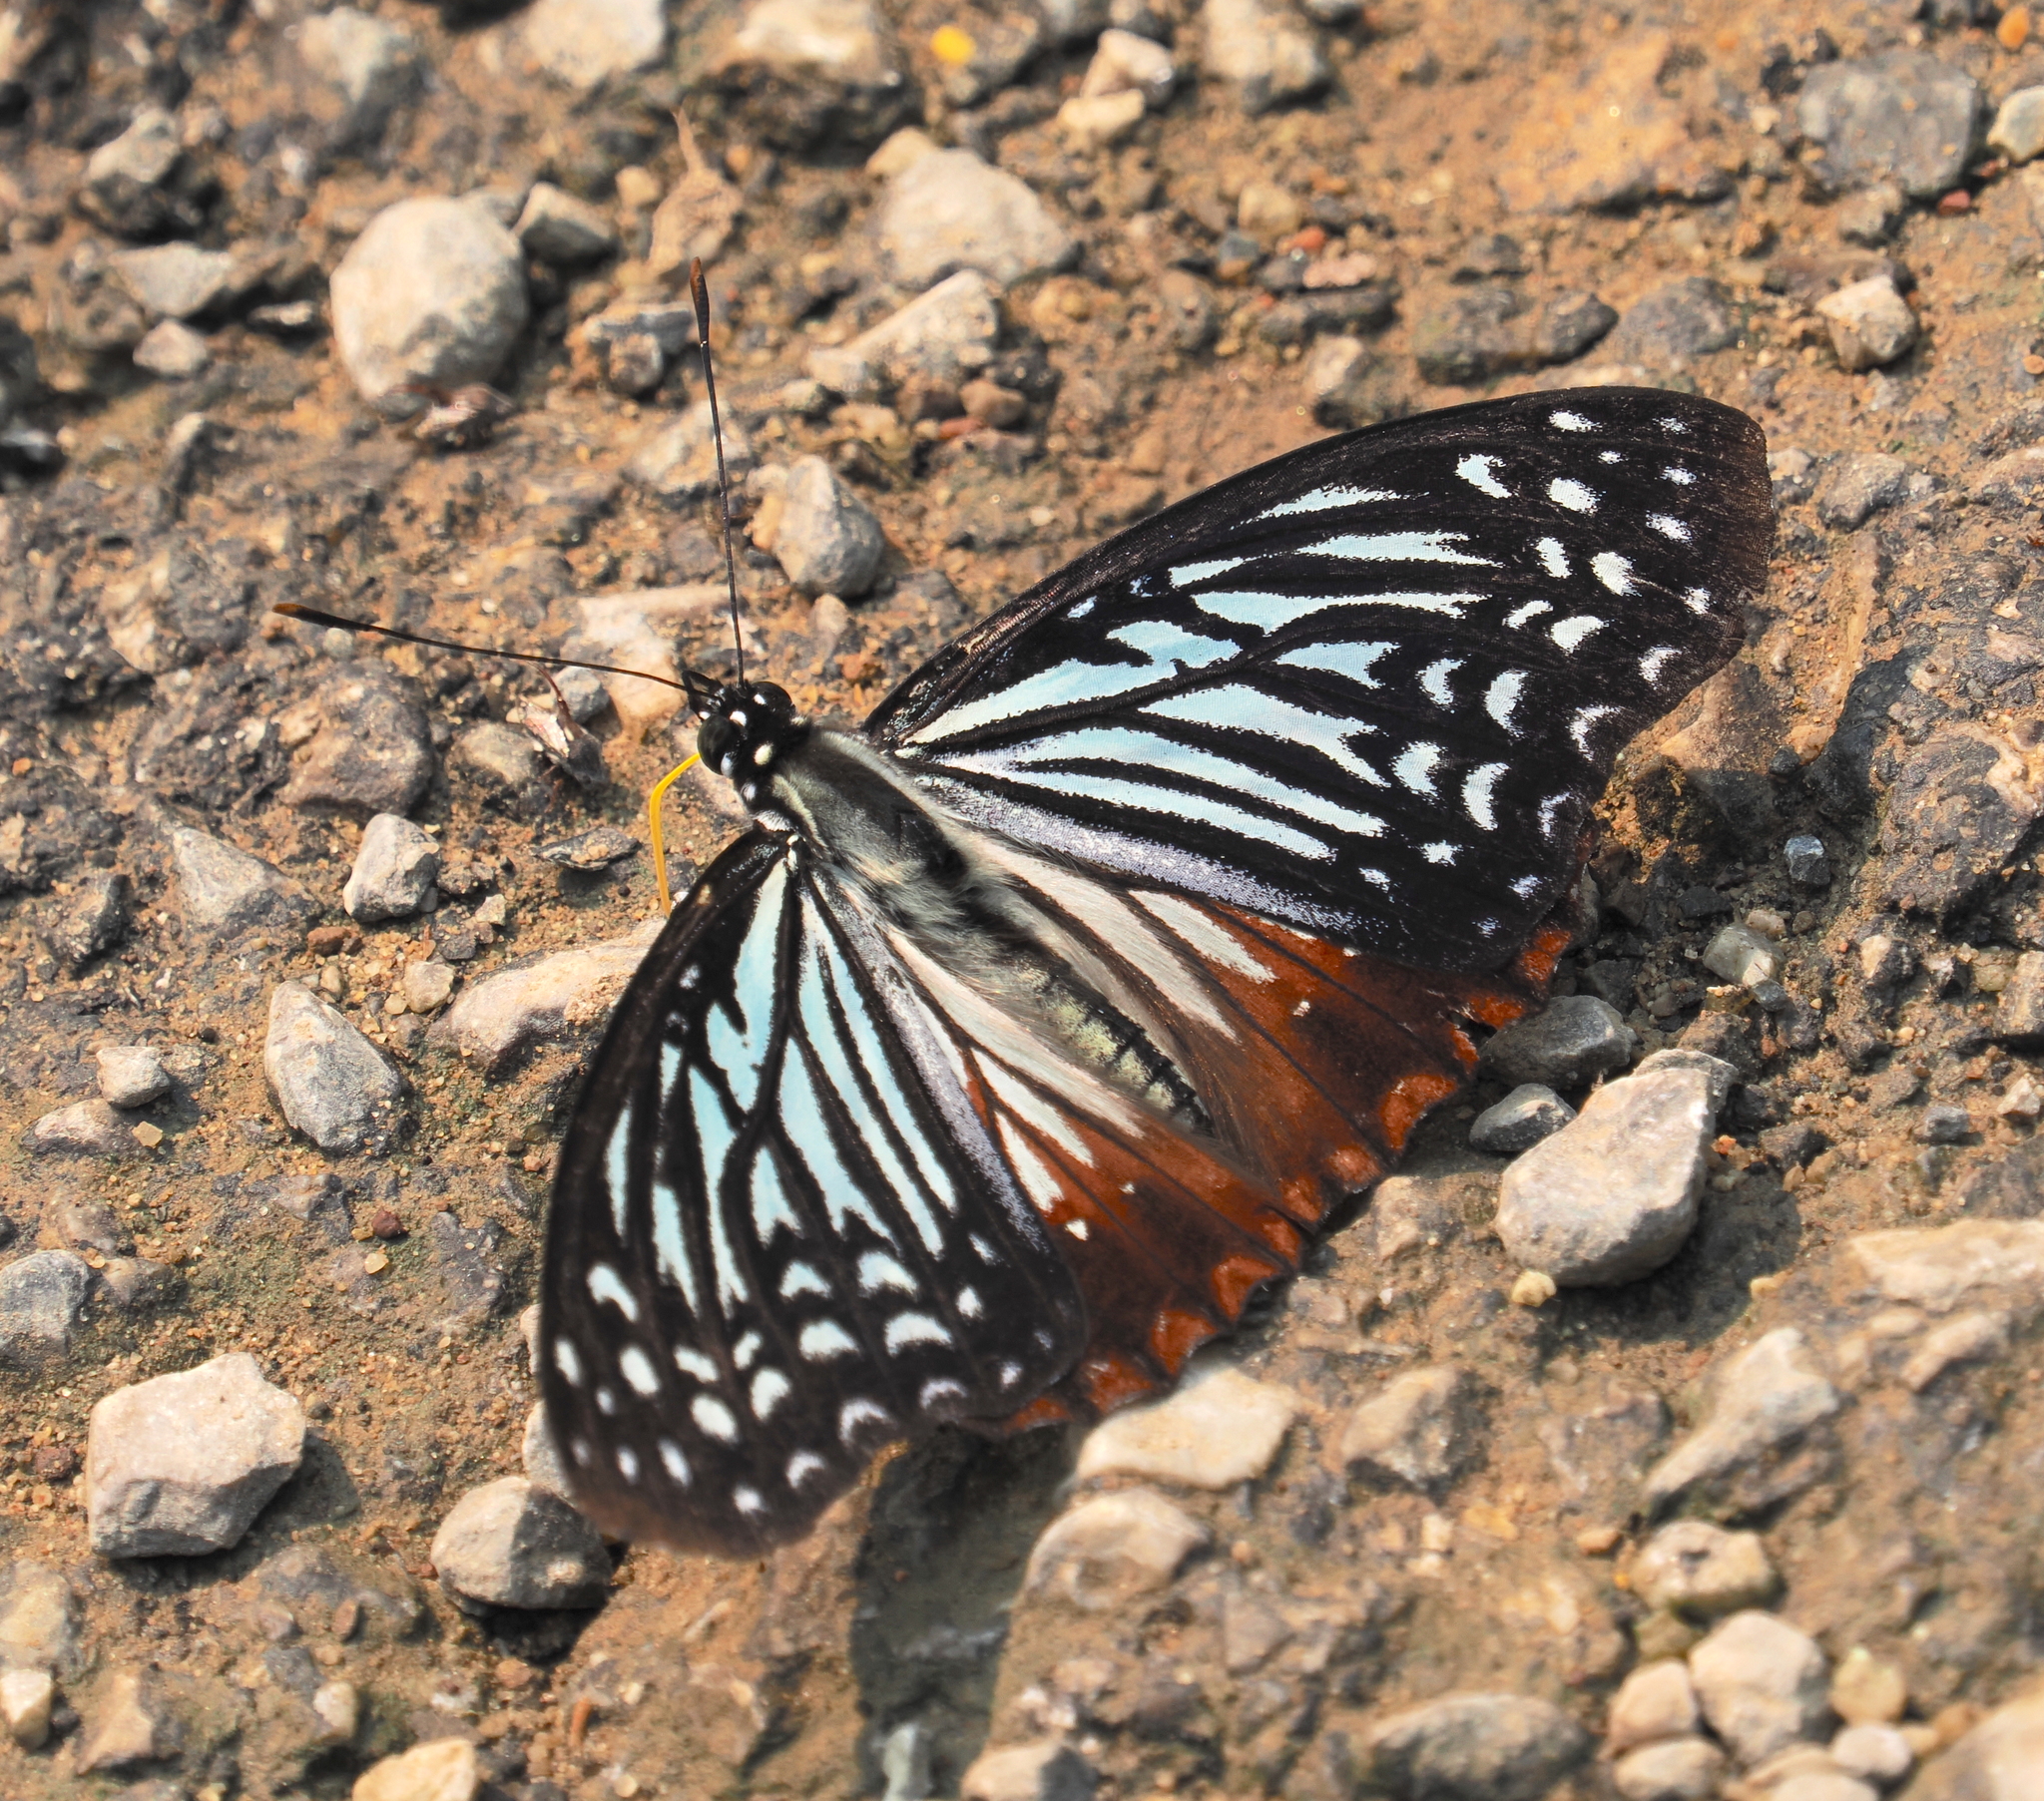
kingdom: Animalia
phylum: Arthropoda
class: Insecta
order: Lepidoptera
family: Nymphalidae
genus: Hestinalis
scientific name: Hestinalis nama
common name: Circe
